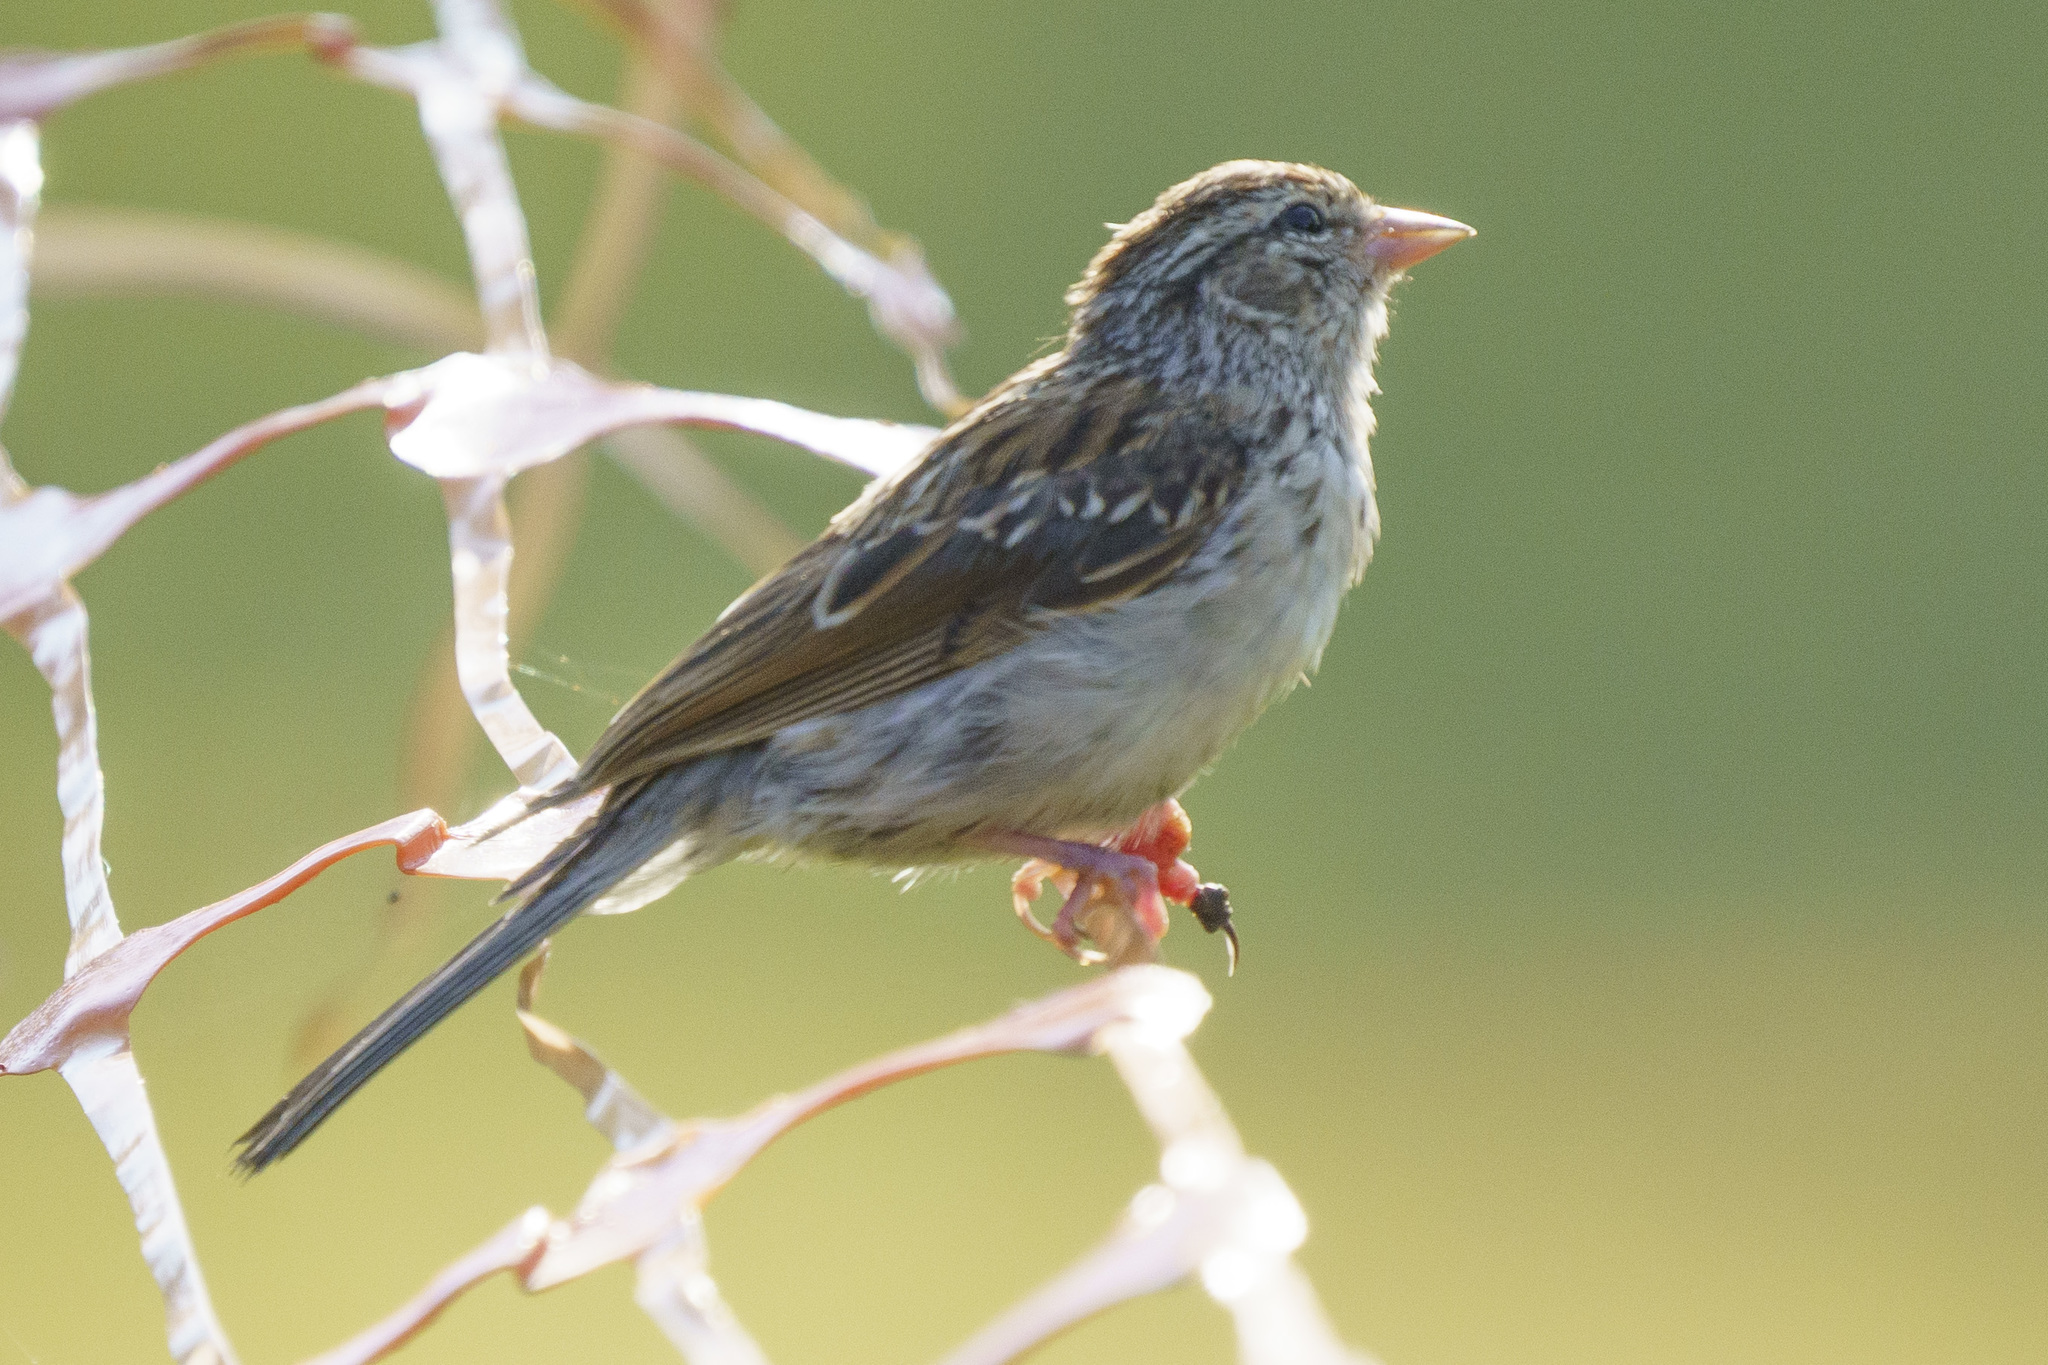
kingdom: Animalia
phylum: Chordata
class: Aves
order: Passeriformes
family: Passerellidae
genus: Spizella
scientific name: Spizella passerina
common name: Chipping sparrow
